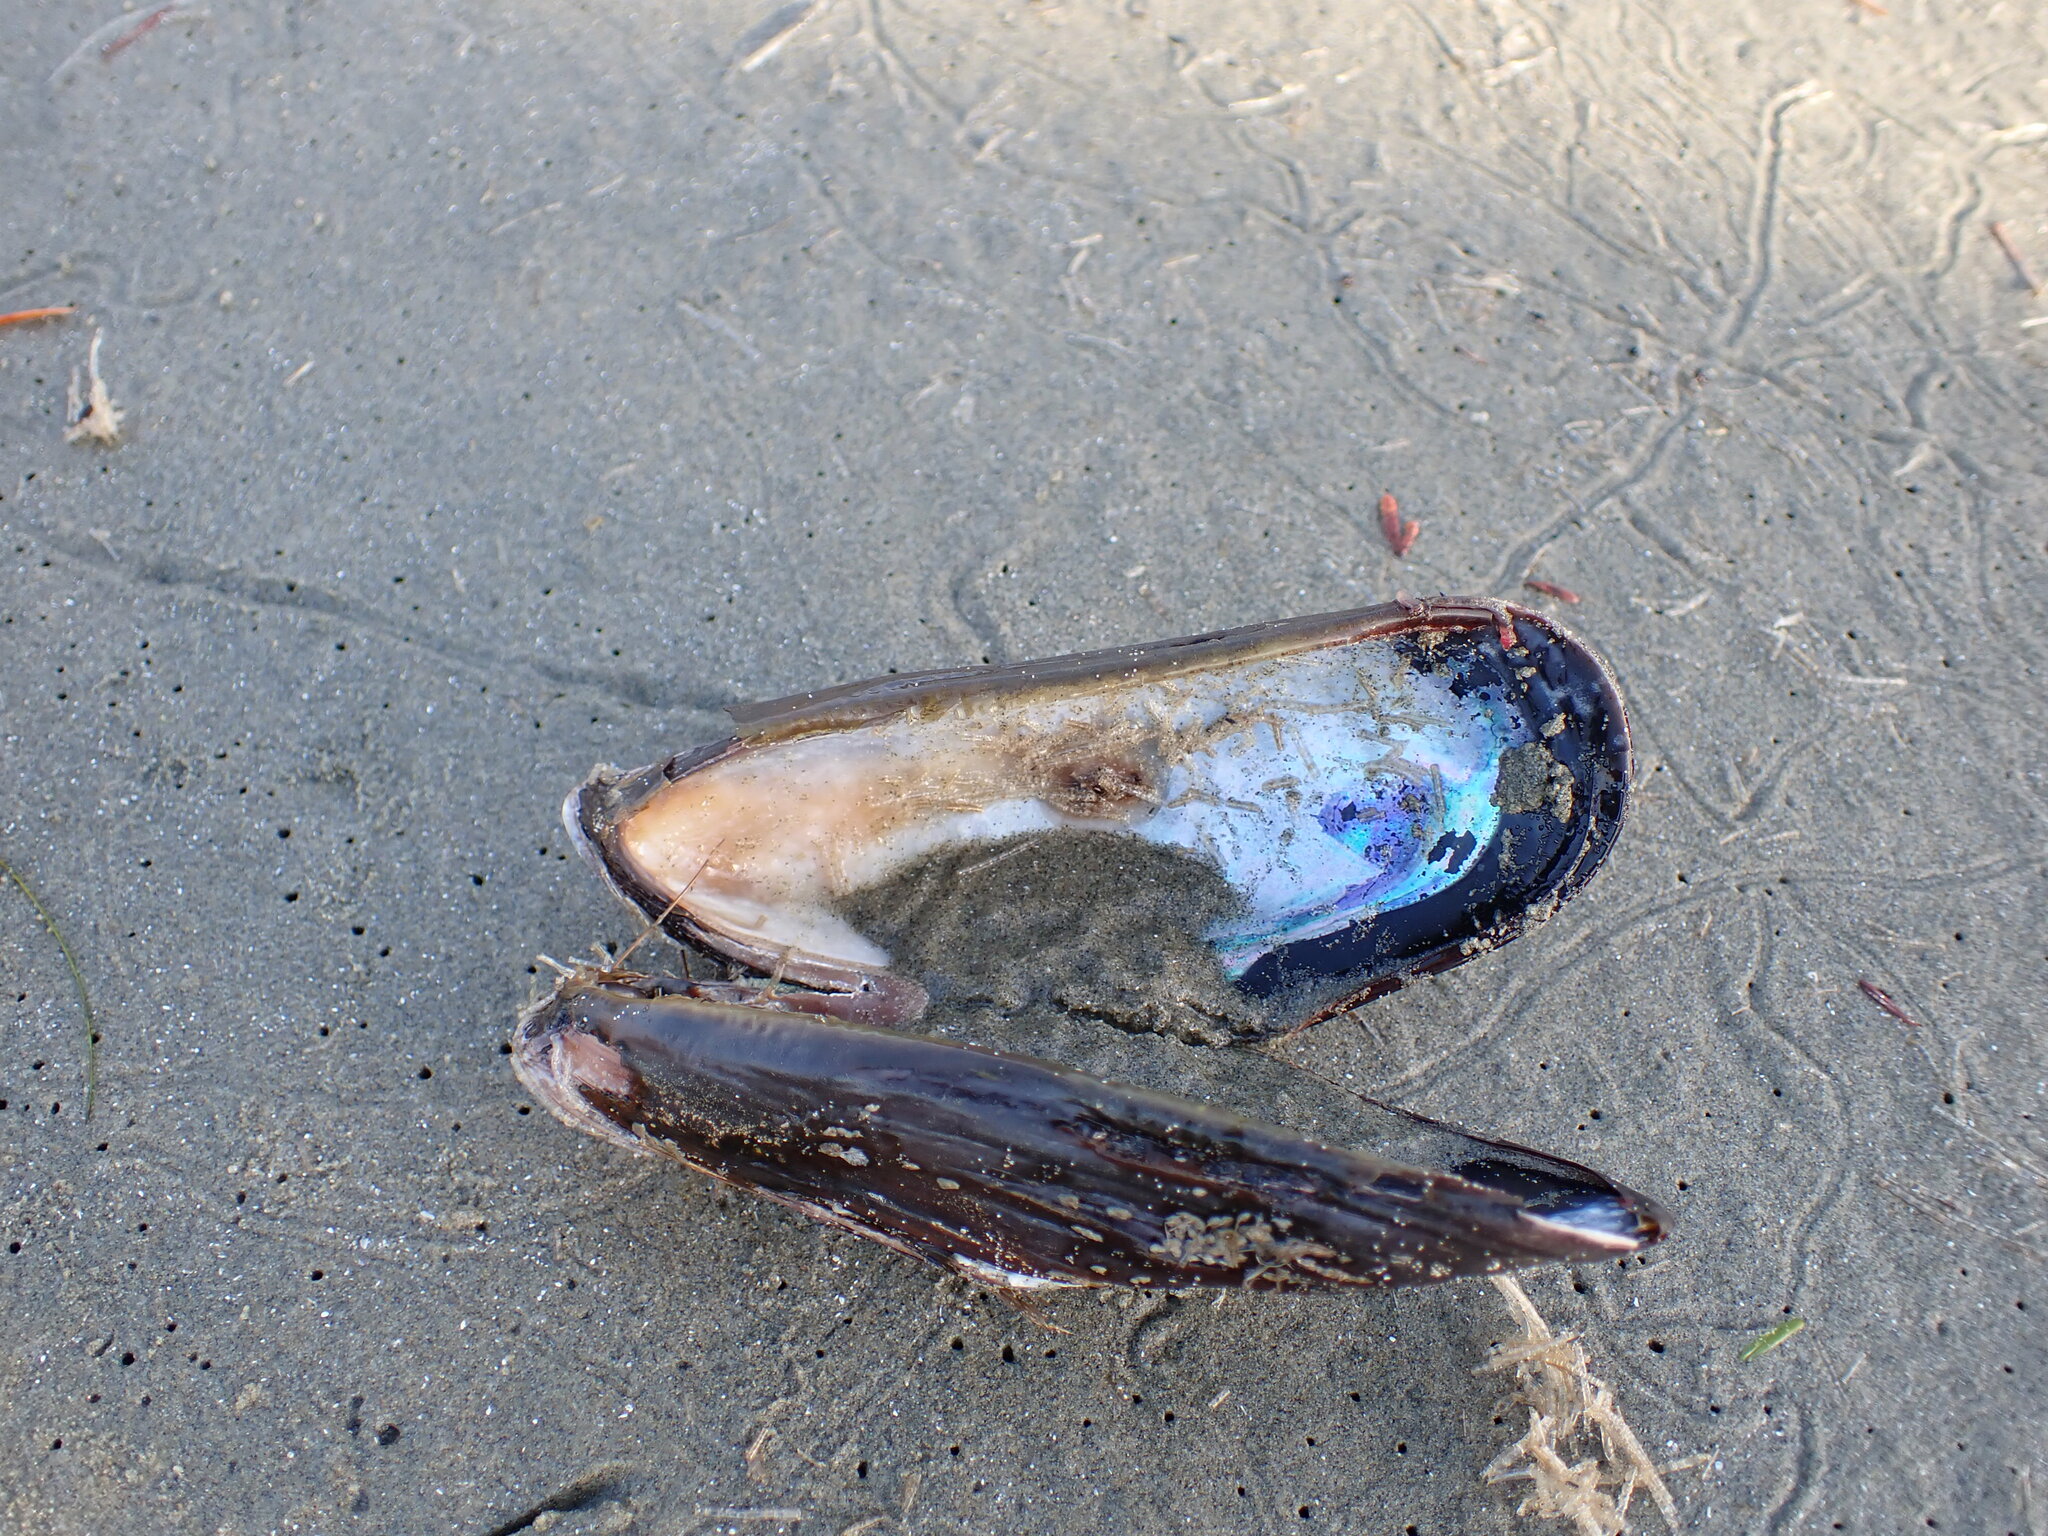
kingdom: Animalia
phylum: Mollusca
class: Bivalvia
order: Mytilida
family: Mytilidae
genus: Mytilus
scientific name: Mytilus californianus
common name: California mussel
